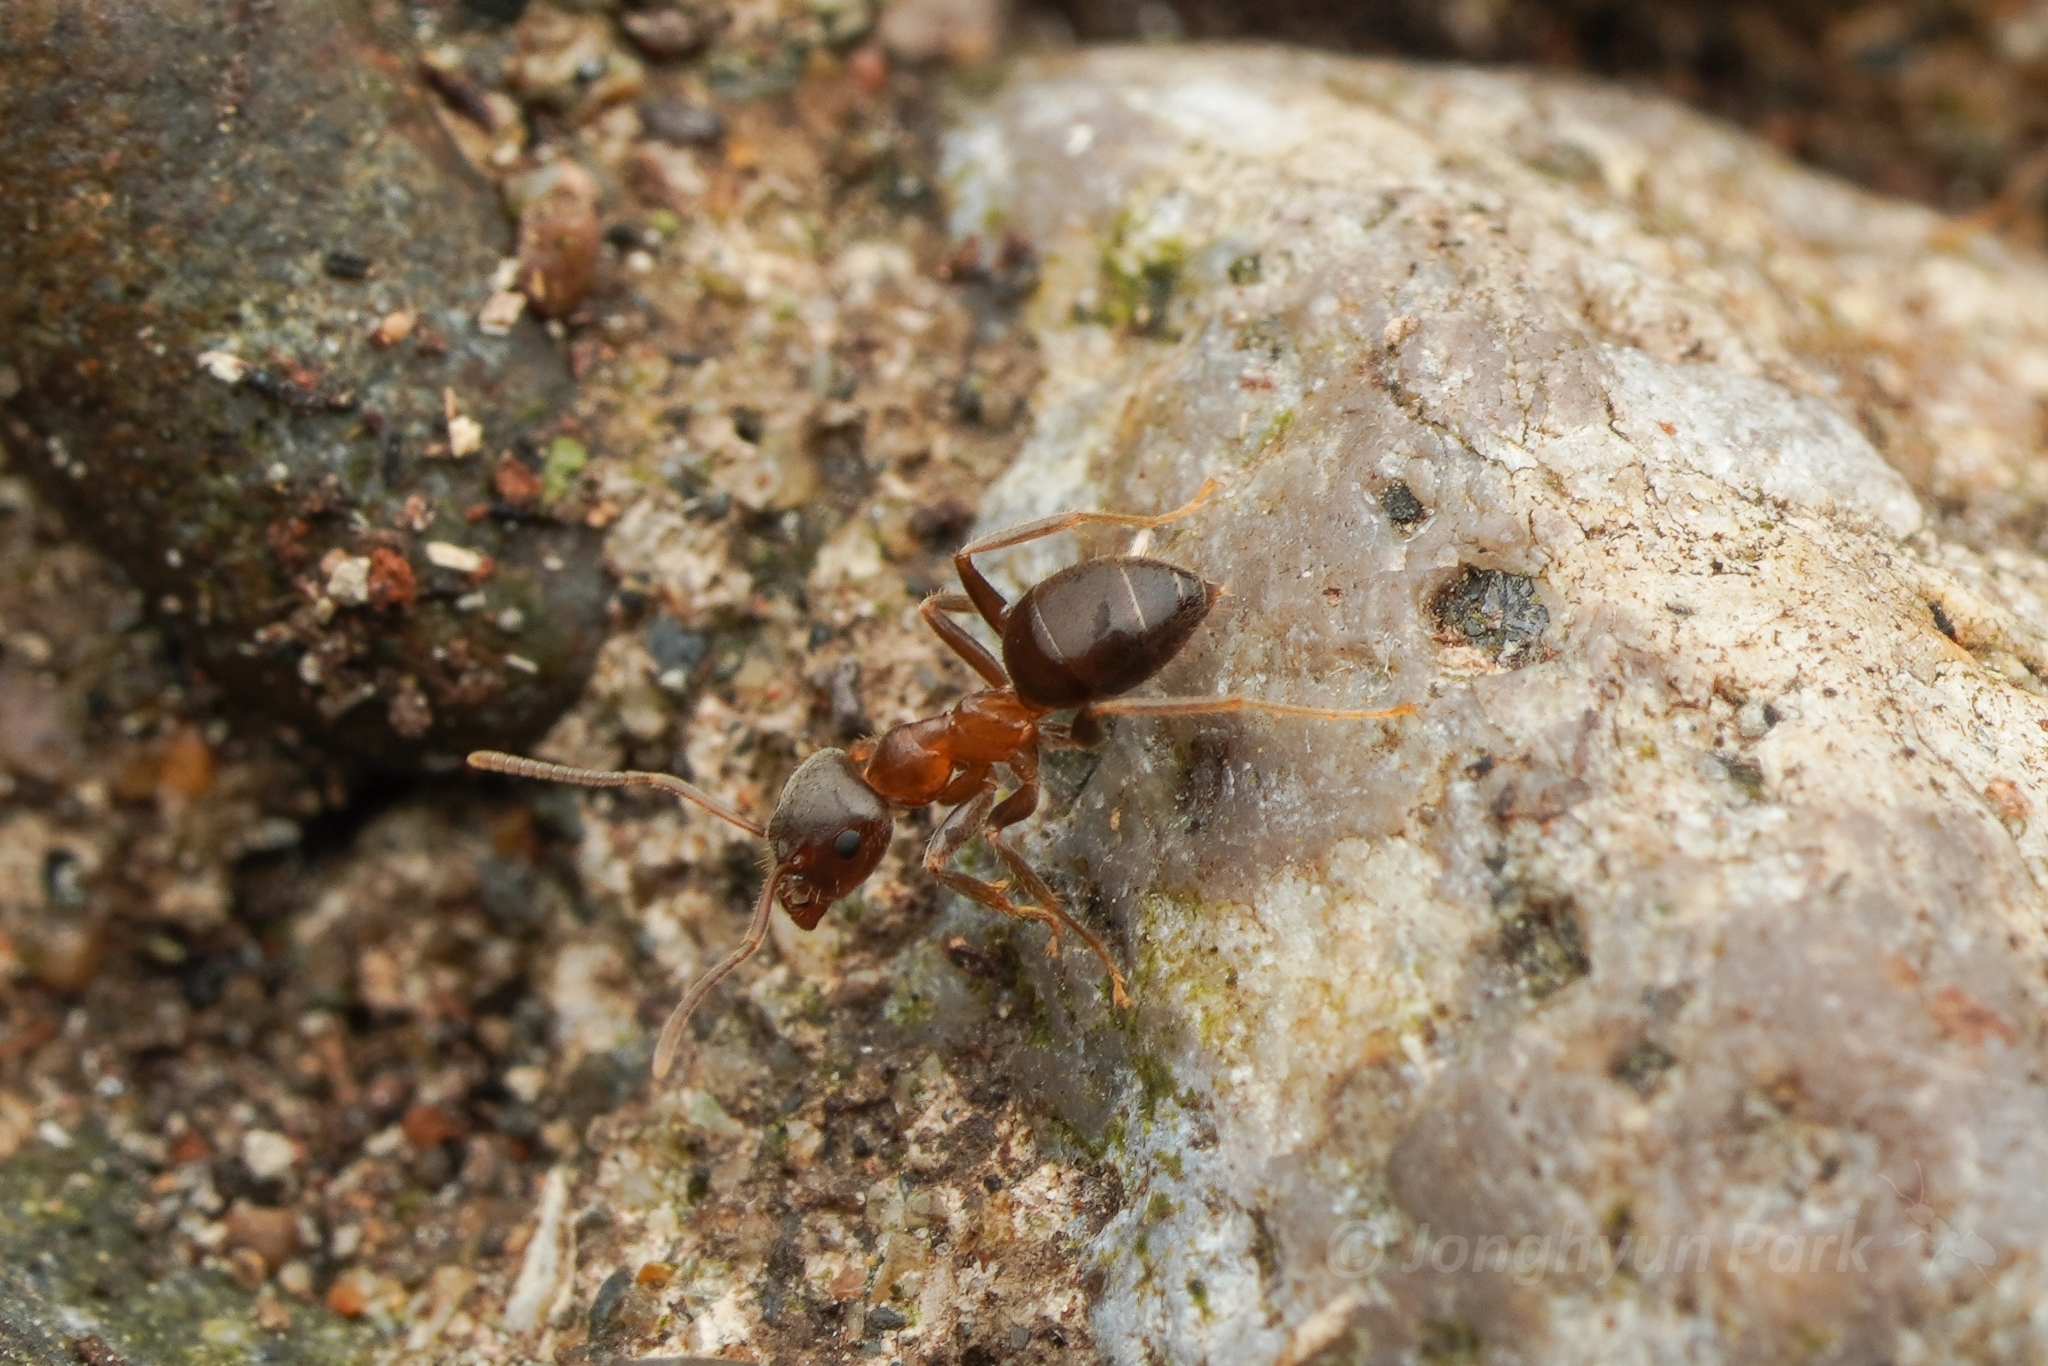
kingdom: Animalia
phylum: Arthropoda
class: Insecta
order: Hymenoptera
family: Formicidae
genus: Lasius
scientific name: Lasius hayashi
